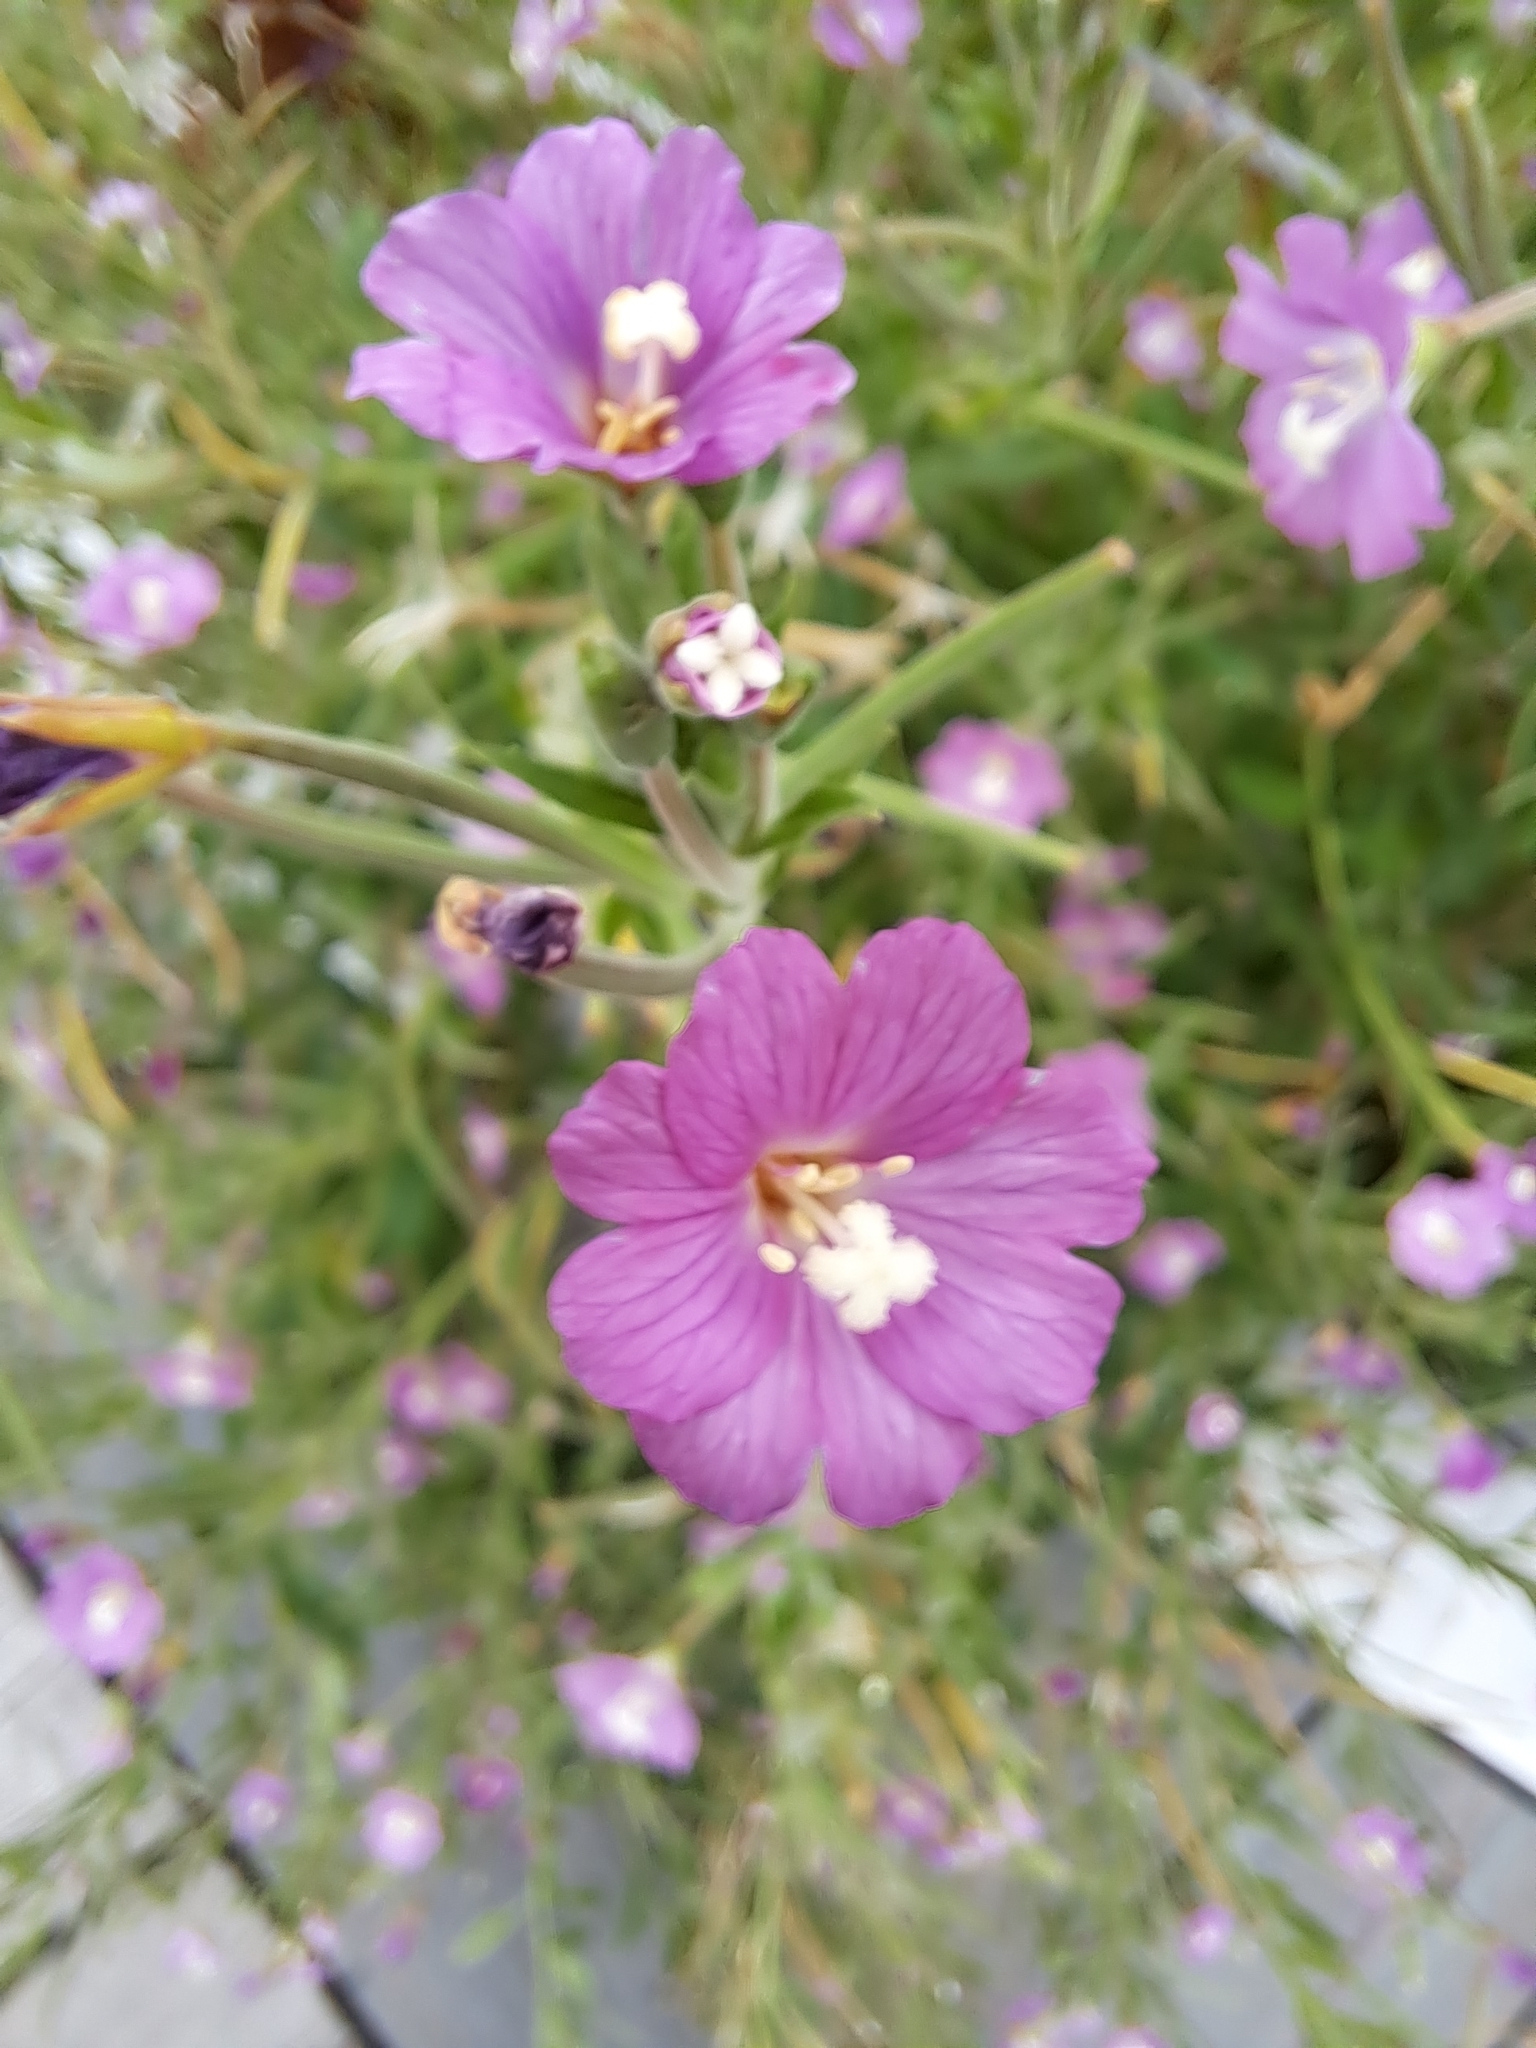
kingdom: Plantae
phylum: Tracheophyta
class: Magnoliopsida
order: Myrtales
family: Onagraceae
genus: Epilobium
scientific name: Epilobium hirsutum
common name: Great willowherb
